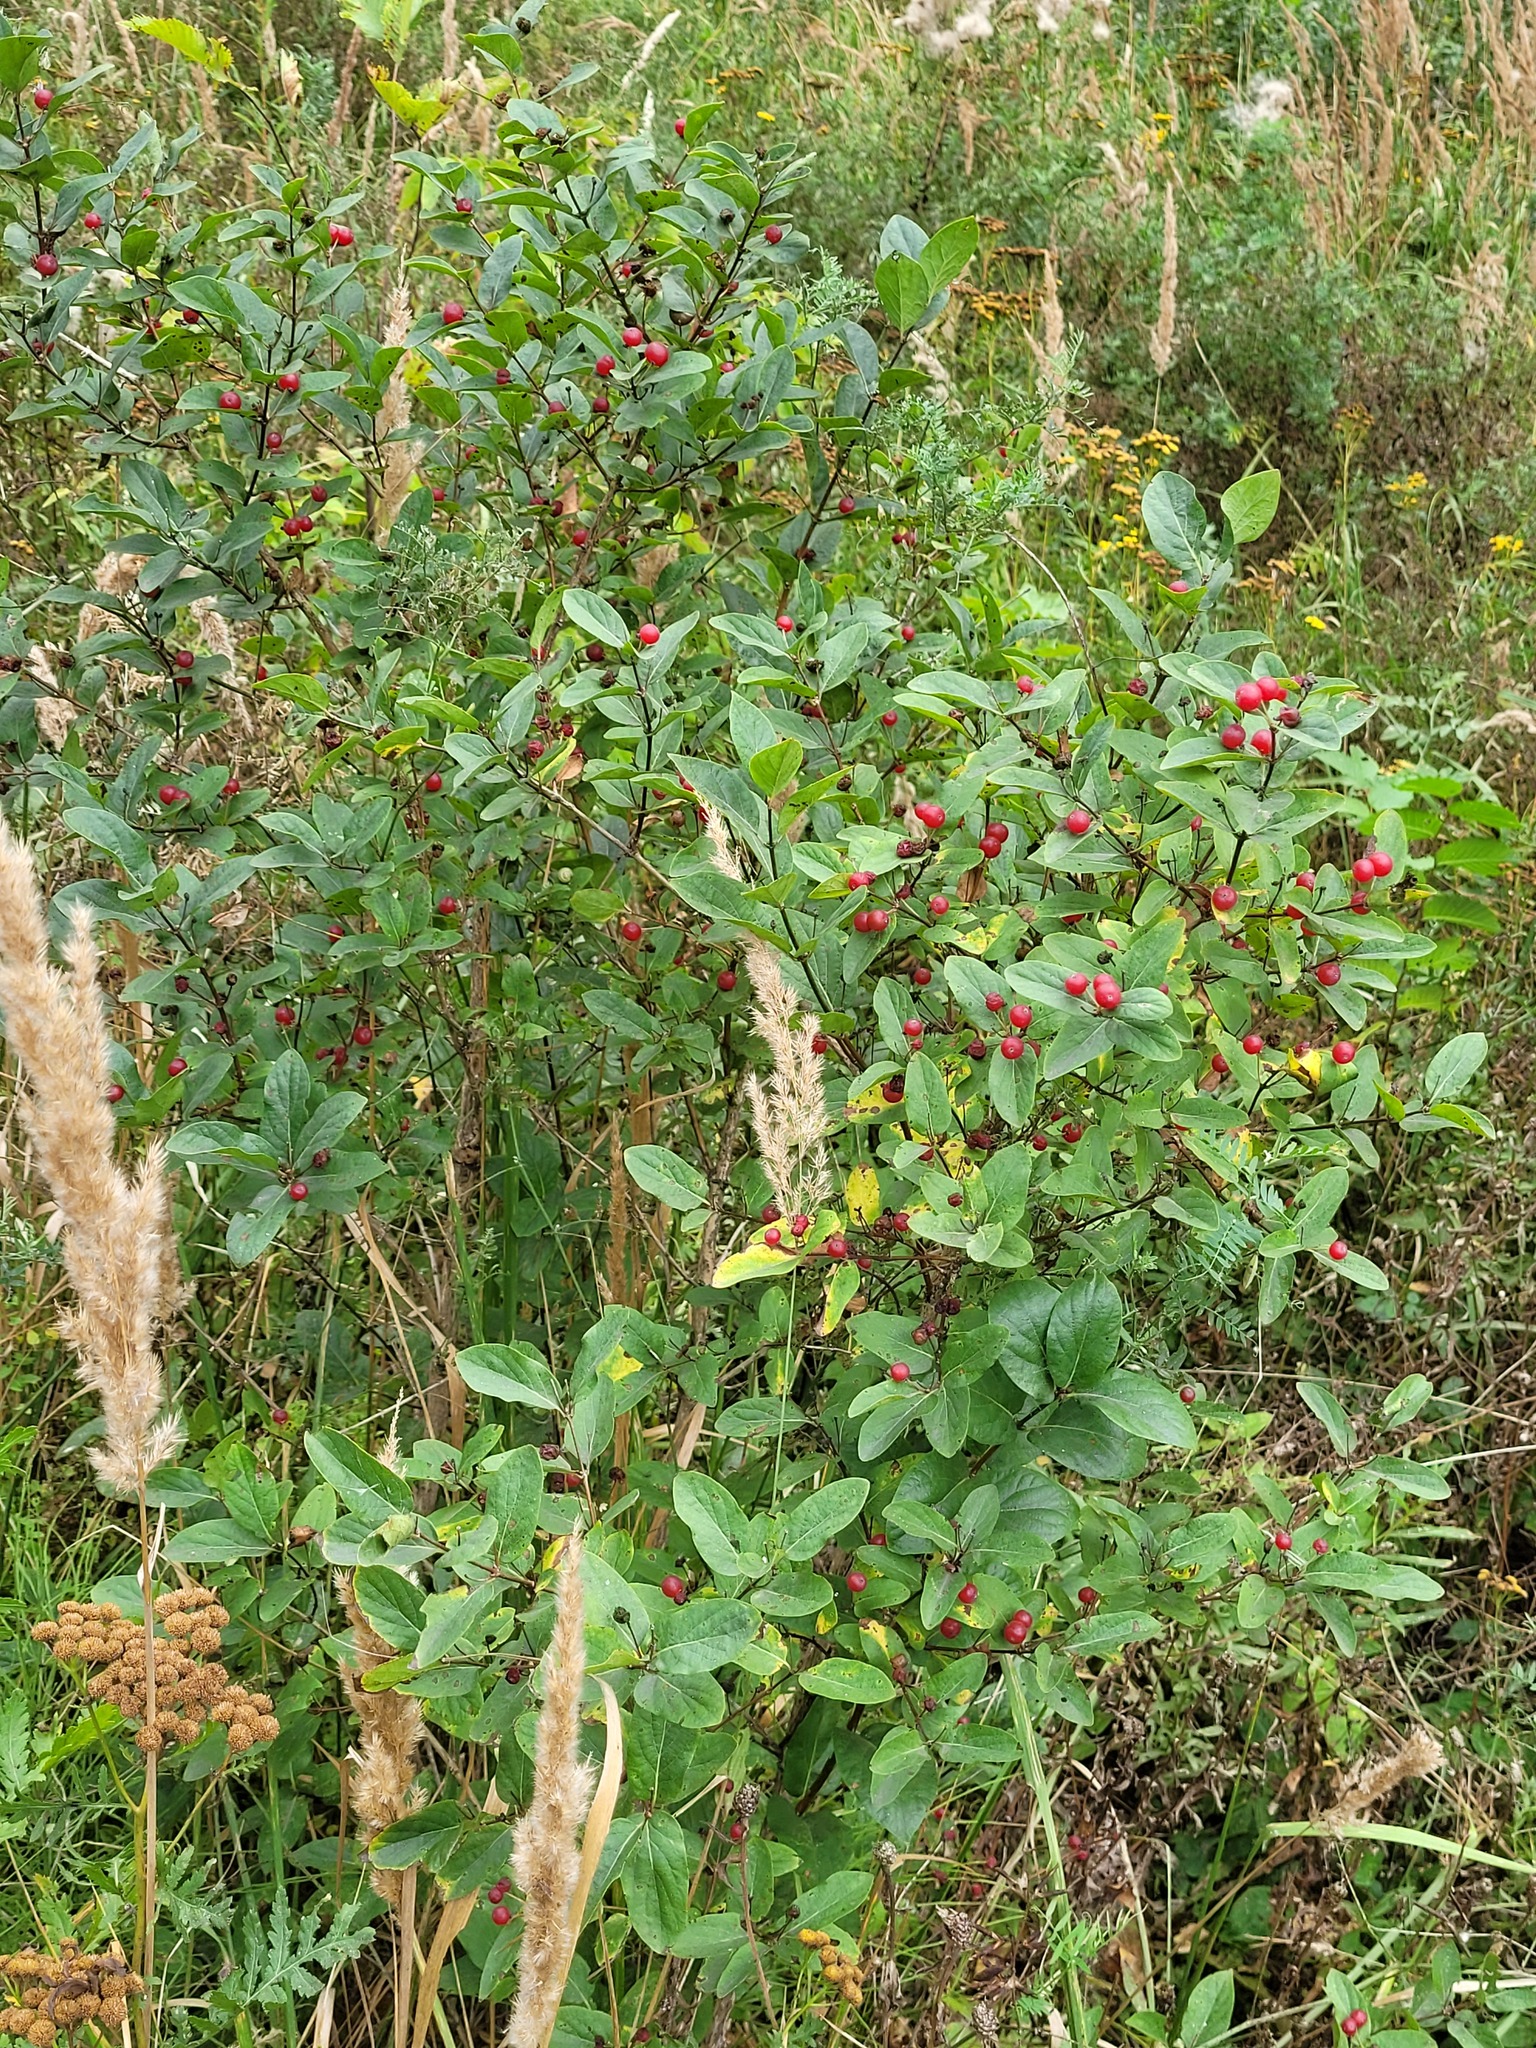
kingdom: Plantae
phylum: Tracheophyta
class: Magnoliopsida
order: Dipsacales
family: Caprifoliaceae
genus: Lonicera
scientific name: Lonicera tatarica
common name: Tatarian honeysuckle
